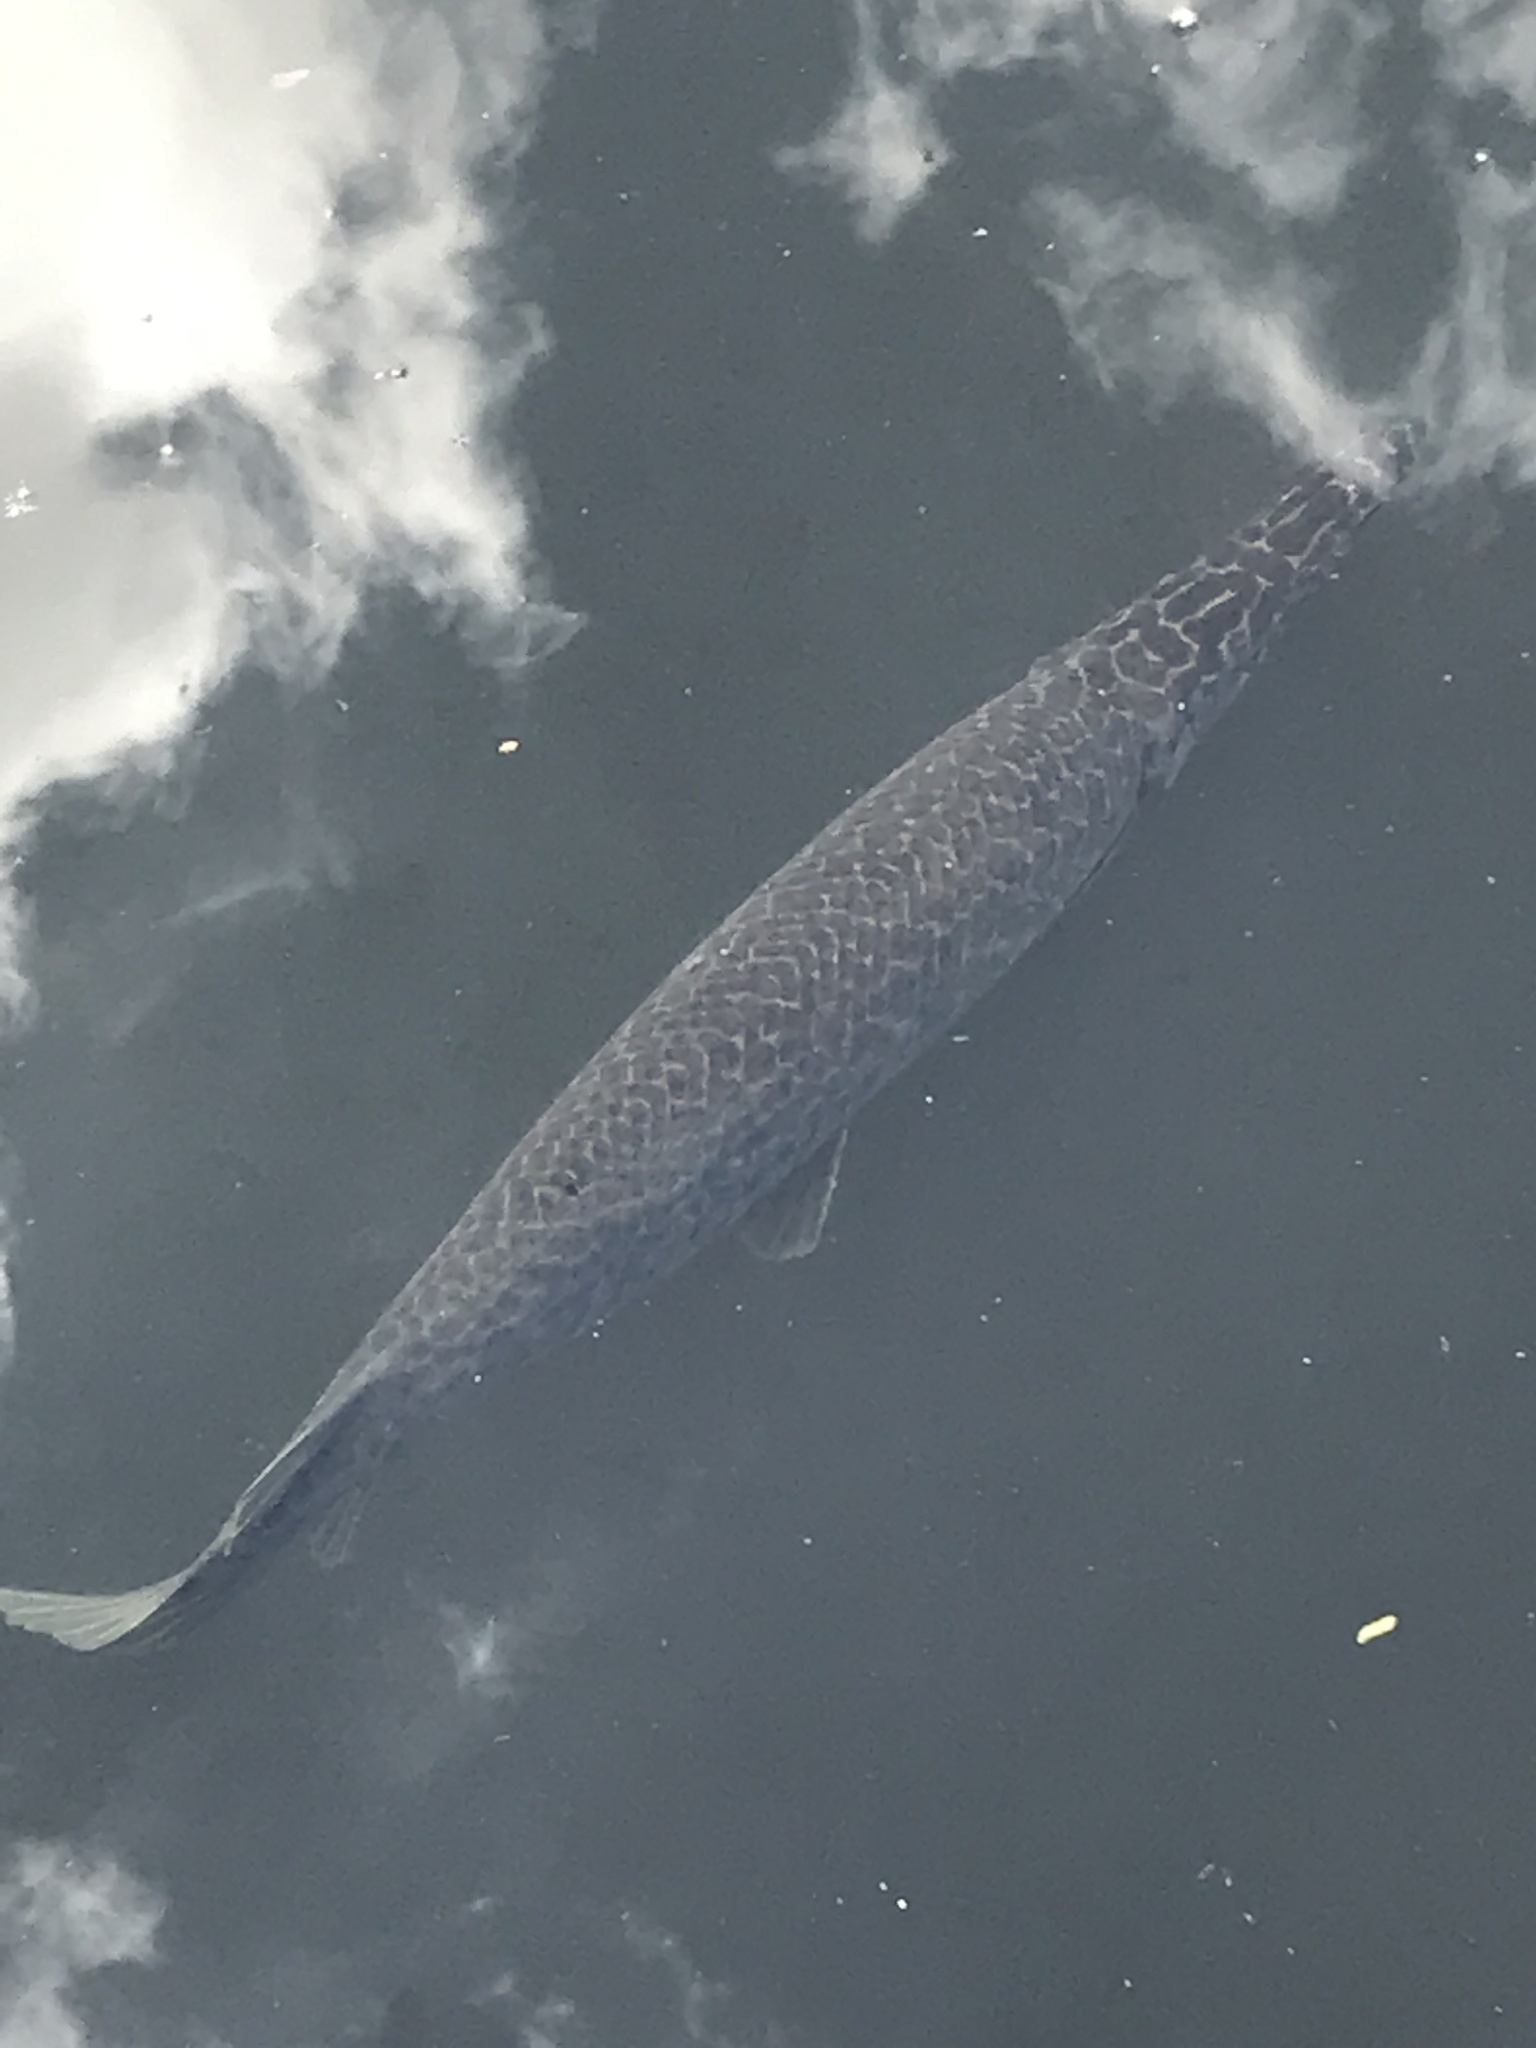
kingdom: Animalia
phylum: Chordata
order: Lepisosteiformes
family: Lepisosteidae
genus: Lepisosteus
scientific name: Lepisosteus platyrhincus
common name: Florida gar
